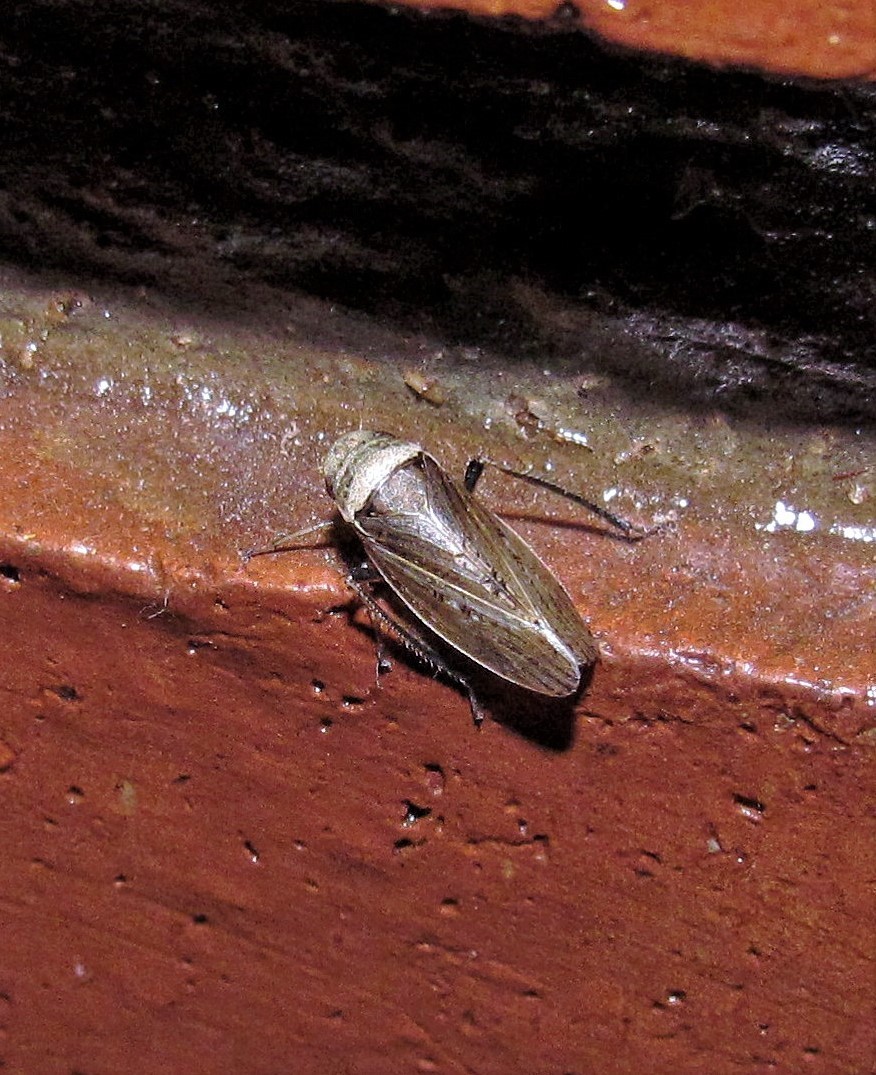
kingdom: Animalia
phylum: Arthropoda
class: Insecta
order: Hemiptera
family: Cicadellidae
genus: Sordana
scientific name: Sordana sordida
